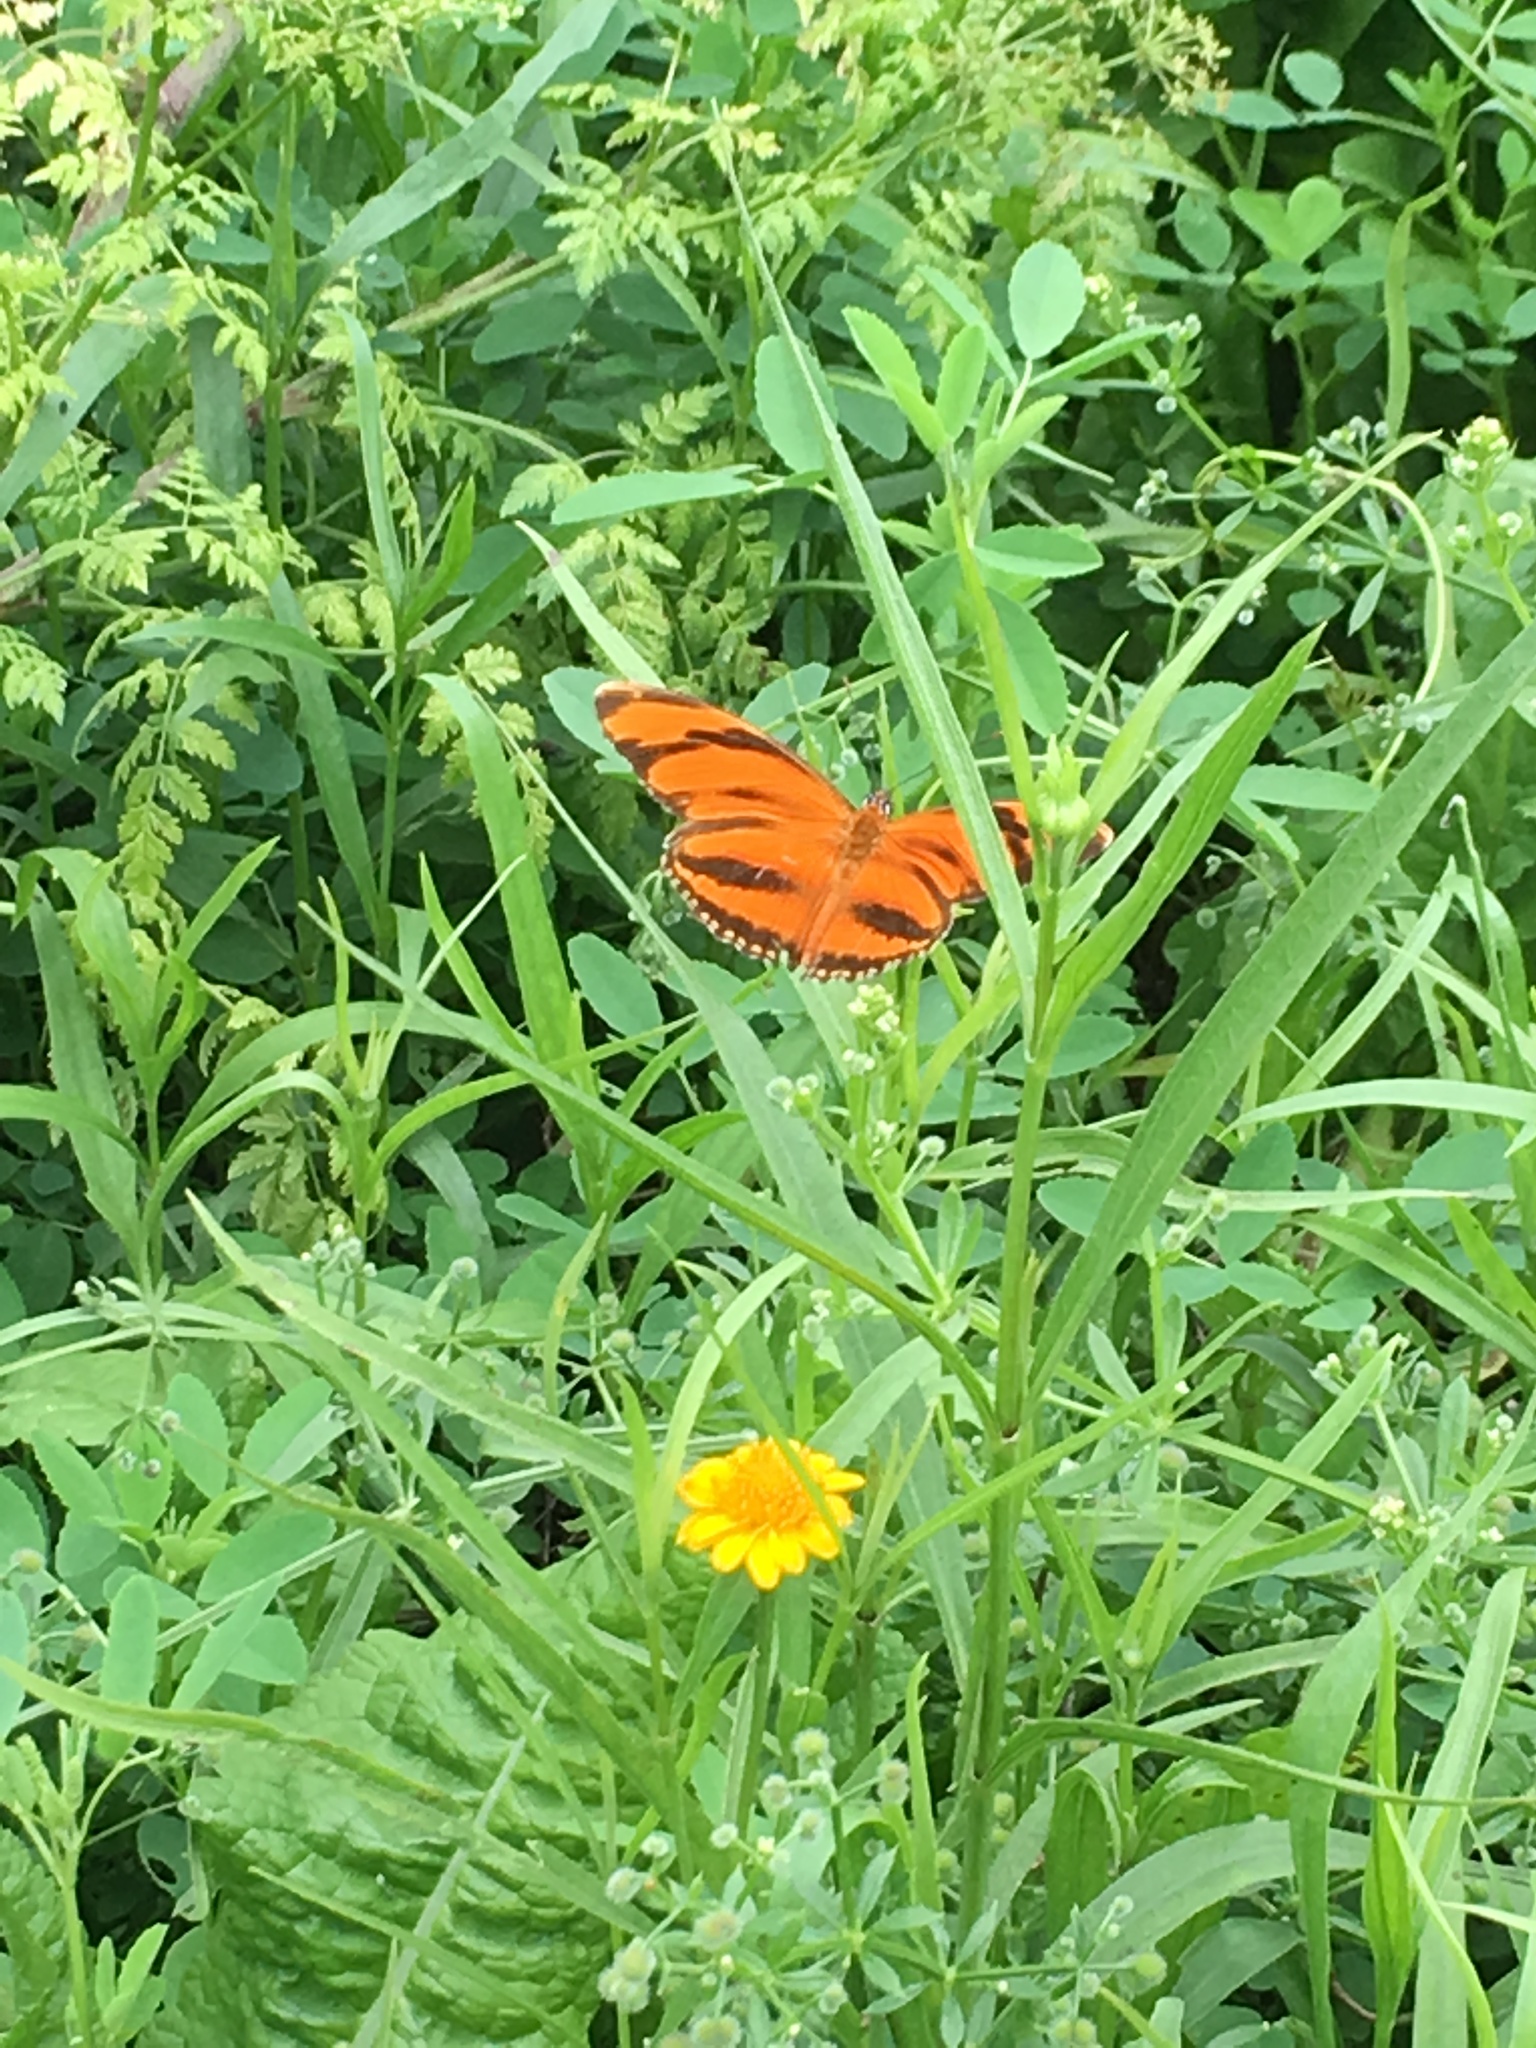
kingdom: Animalia
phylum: Arthropoda
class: Insecta
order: Lepidoptera
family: Nymphalidae
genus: Dryadula
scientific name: Dryadula phaetusa
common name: Banded orange heliconian
